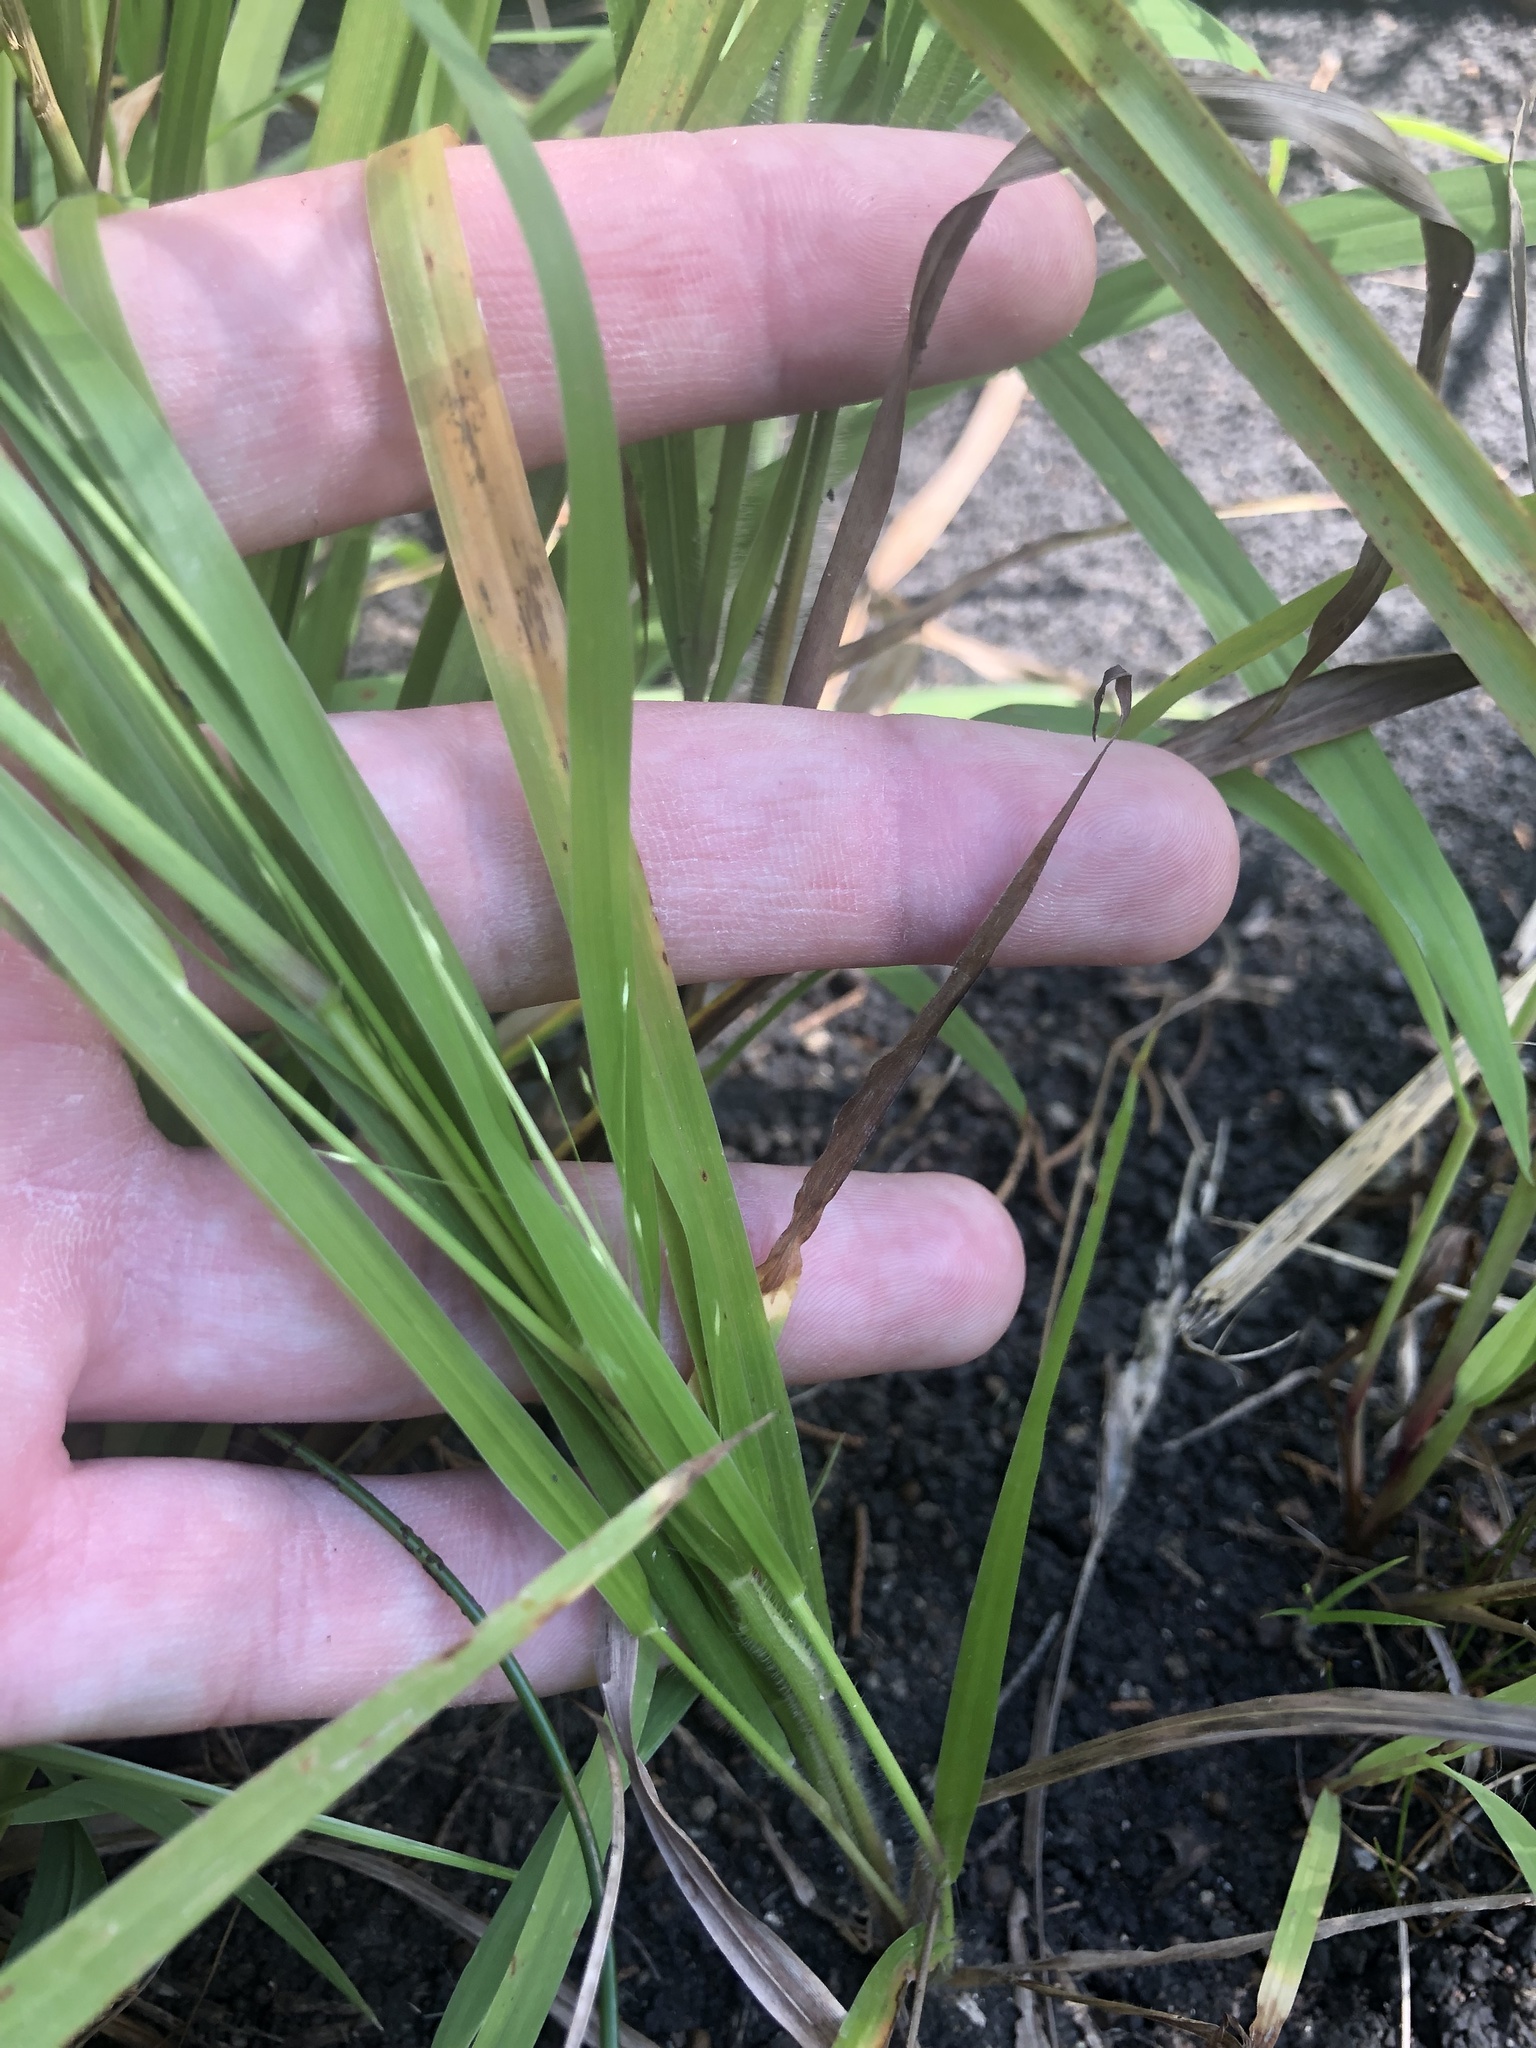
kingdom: Plantae
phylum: Tracheophyta
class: Liliopsida
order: Poales
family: Poaceae
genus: Panicum
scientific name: Panicum flexile
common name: Wiry panicgrass
